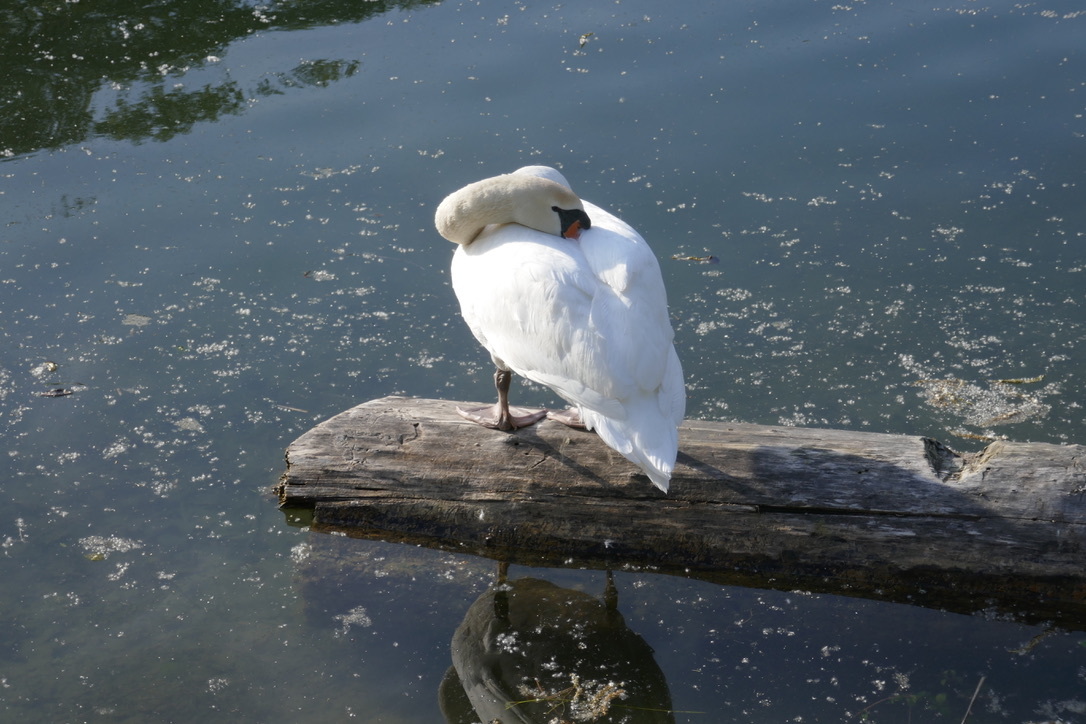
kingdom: Animalia
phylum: Chordata
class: Aves
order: Anseriformes
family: Anatidae
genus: Cygnus
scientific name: Cygnus olor
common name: Mute swan
